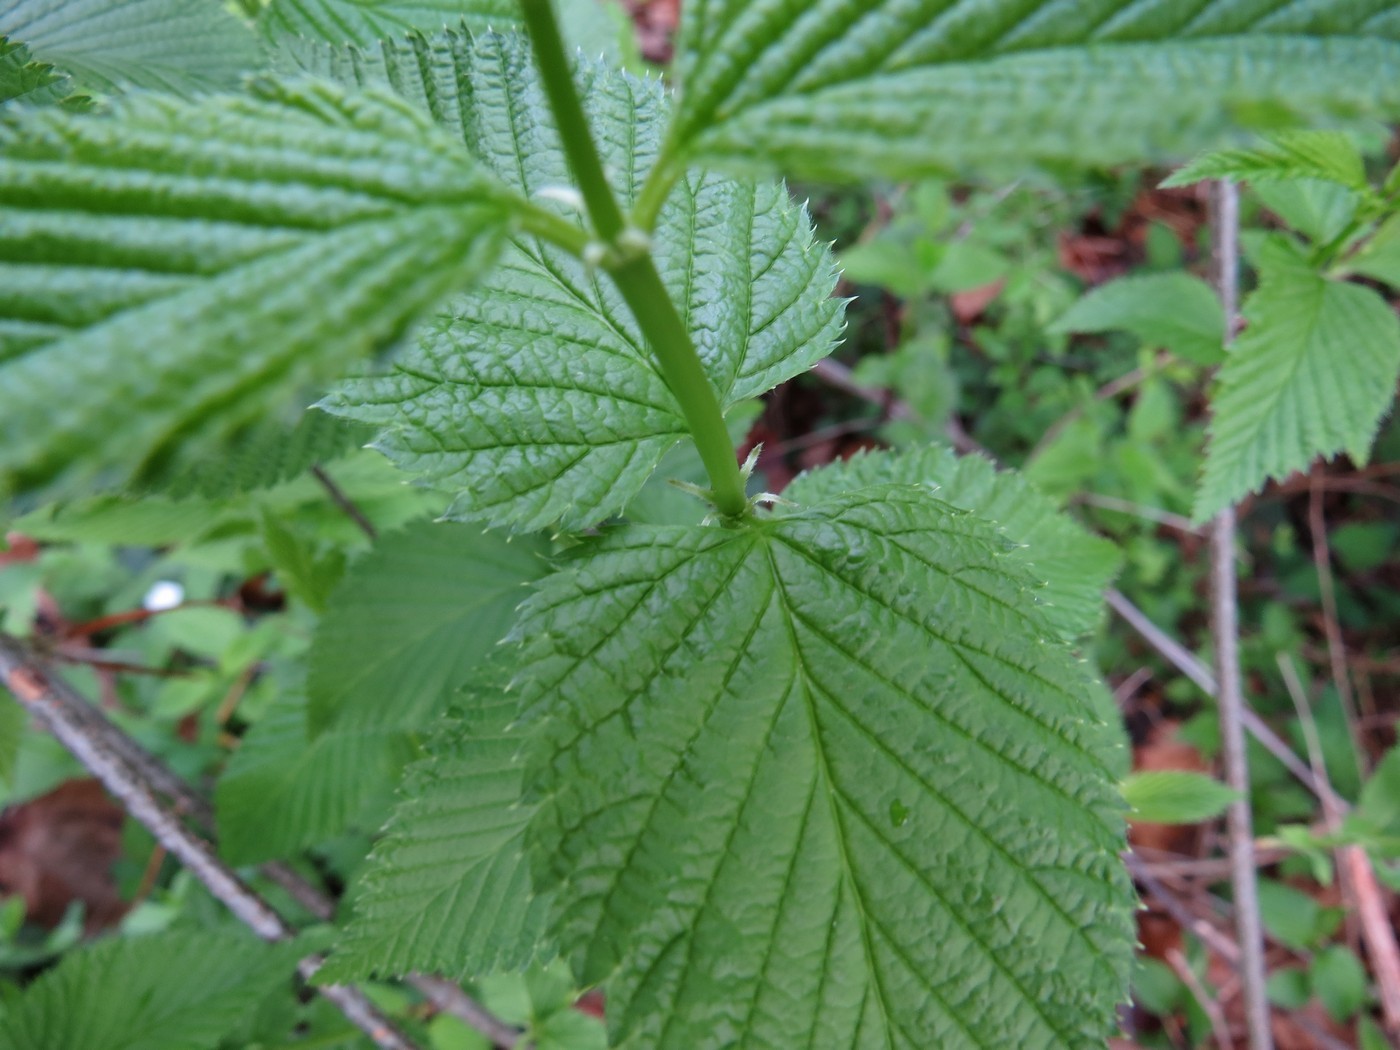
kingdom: Plantae
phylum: Tracheophyta
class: Magnoliopsida
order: Rosales
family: Rosaceae
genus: Rhodotypos
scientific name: Rhodotypos scandens
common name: Jetbead
